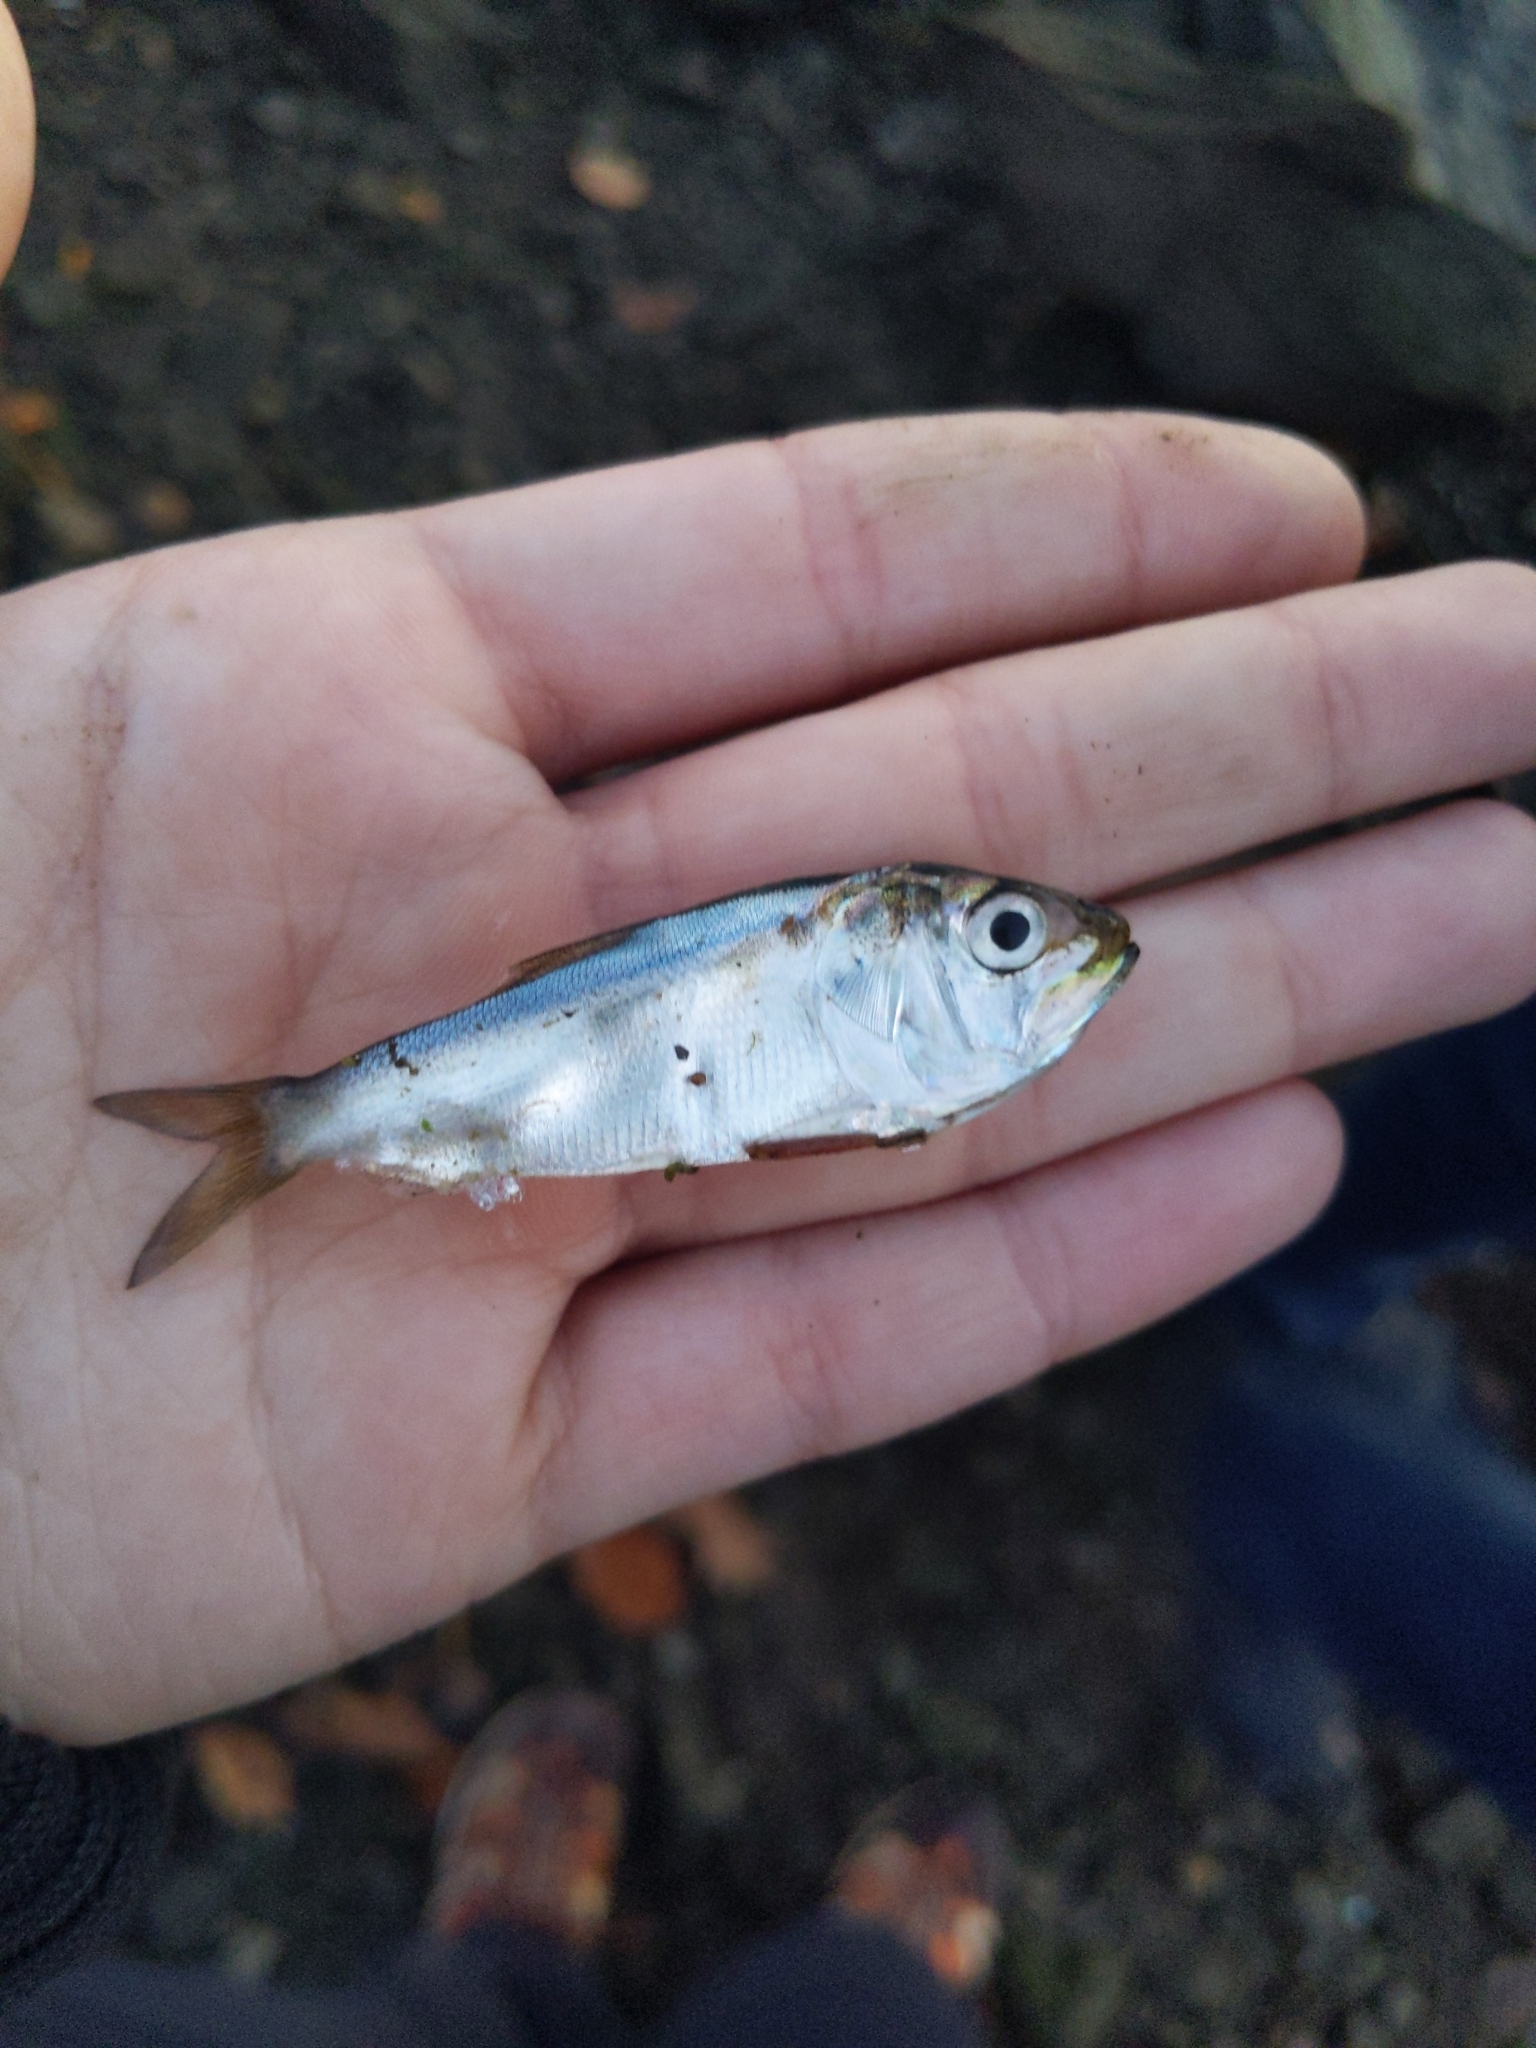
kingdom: Animalia
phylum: Chordata
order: Clupeiformes
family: Clupeidae
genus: Brevoortia
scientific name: Brevoortia tyrannus
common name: Atlantic menhaden
